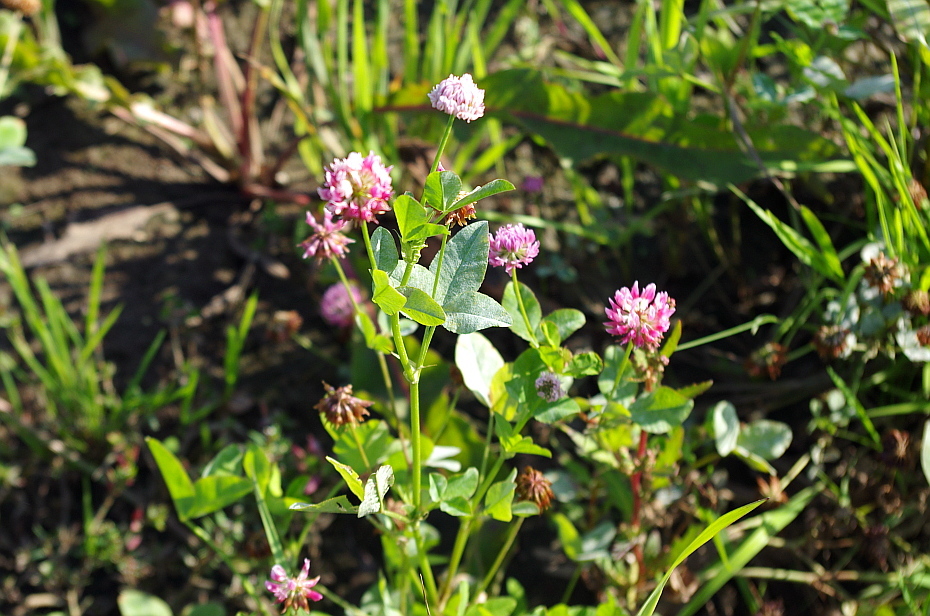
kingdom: Plantae
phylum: Tracheophyta
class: Magnoliopsida
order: Fabales
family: Fabaceae
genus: Trifolium
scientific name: Trifolium hybridum
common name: Alsike clover
